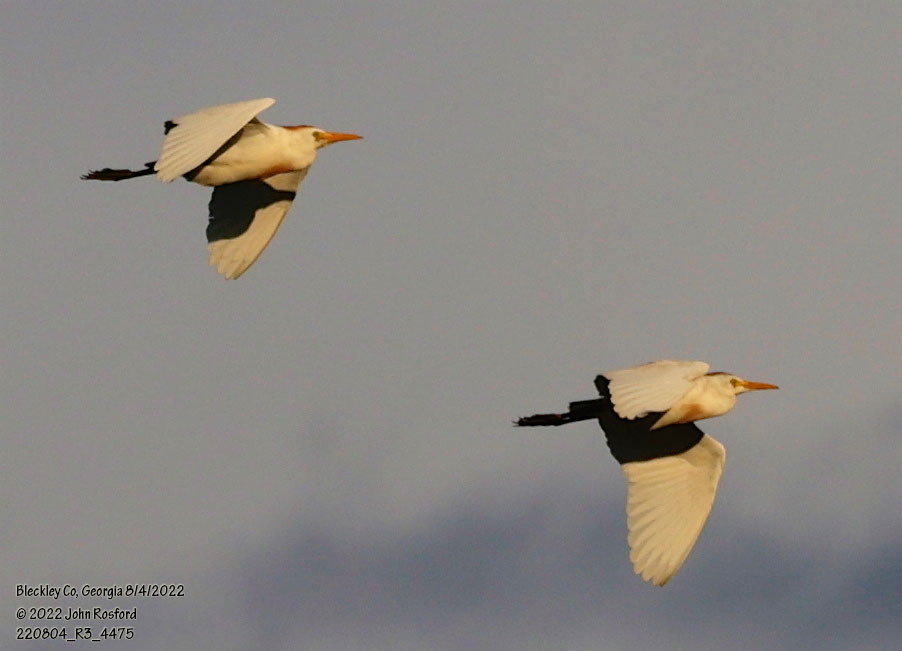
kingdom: Animalia
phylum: Chordata
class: Aves
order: Pelecaniformes
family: Ardeidae
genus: Bubulcus
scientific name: Bubulcus ibis
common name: Cattle egret
